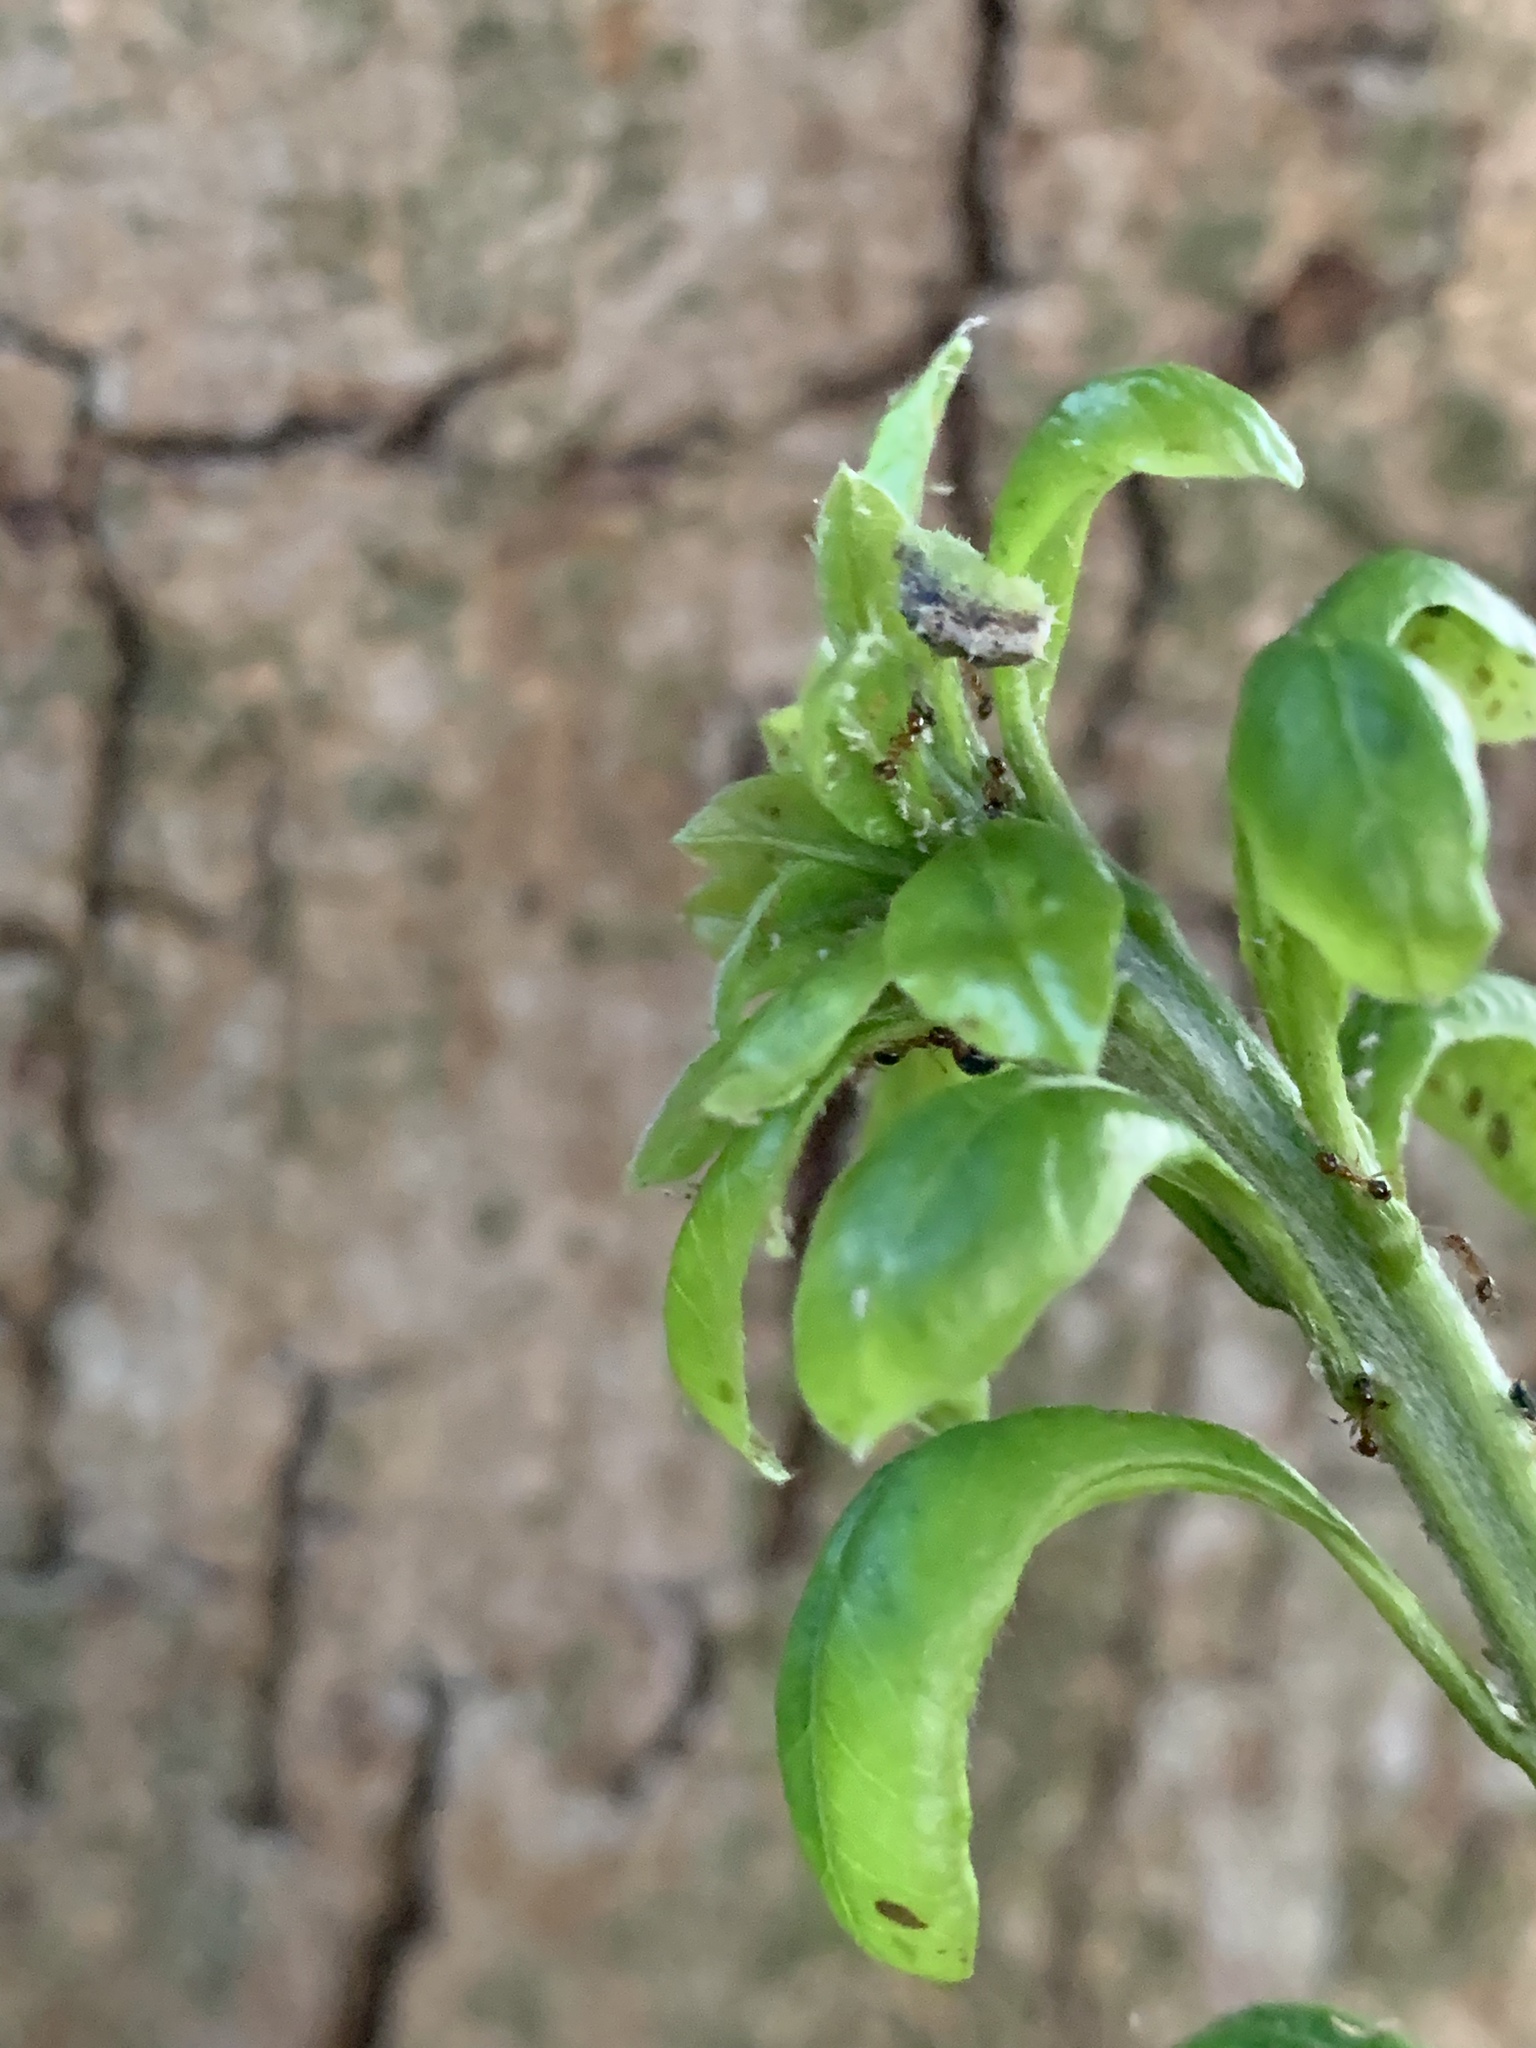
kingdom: Animalia
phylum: Arthropoda
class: Insecta
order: Diptera
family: Syrphidae
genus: Dioprosopa
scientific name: Dioprosopa clavatus
